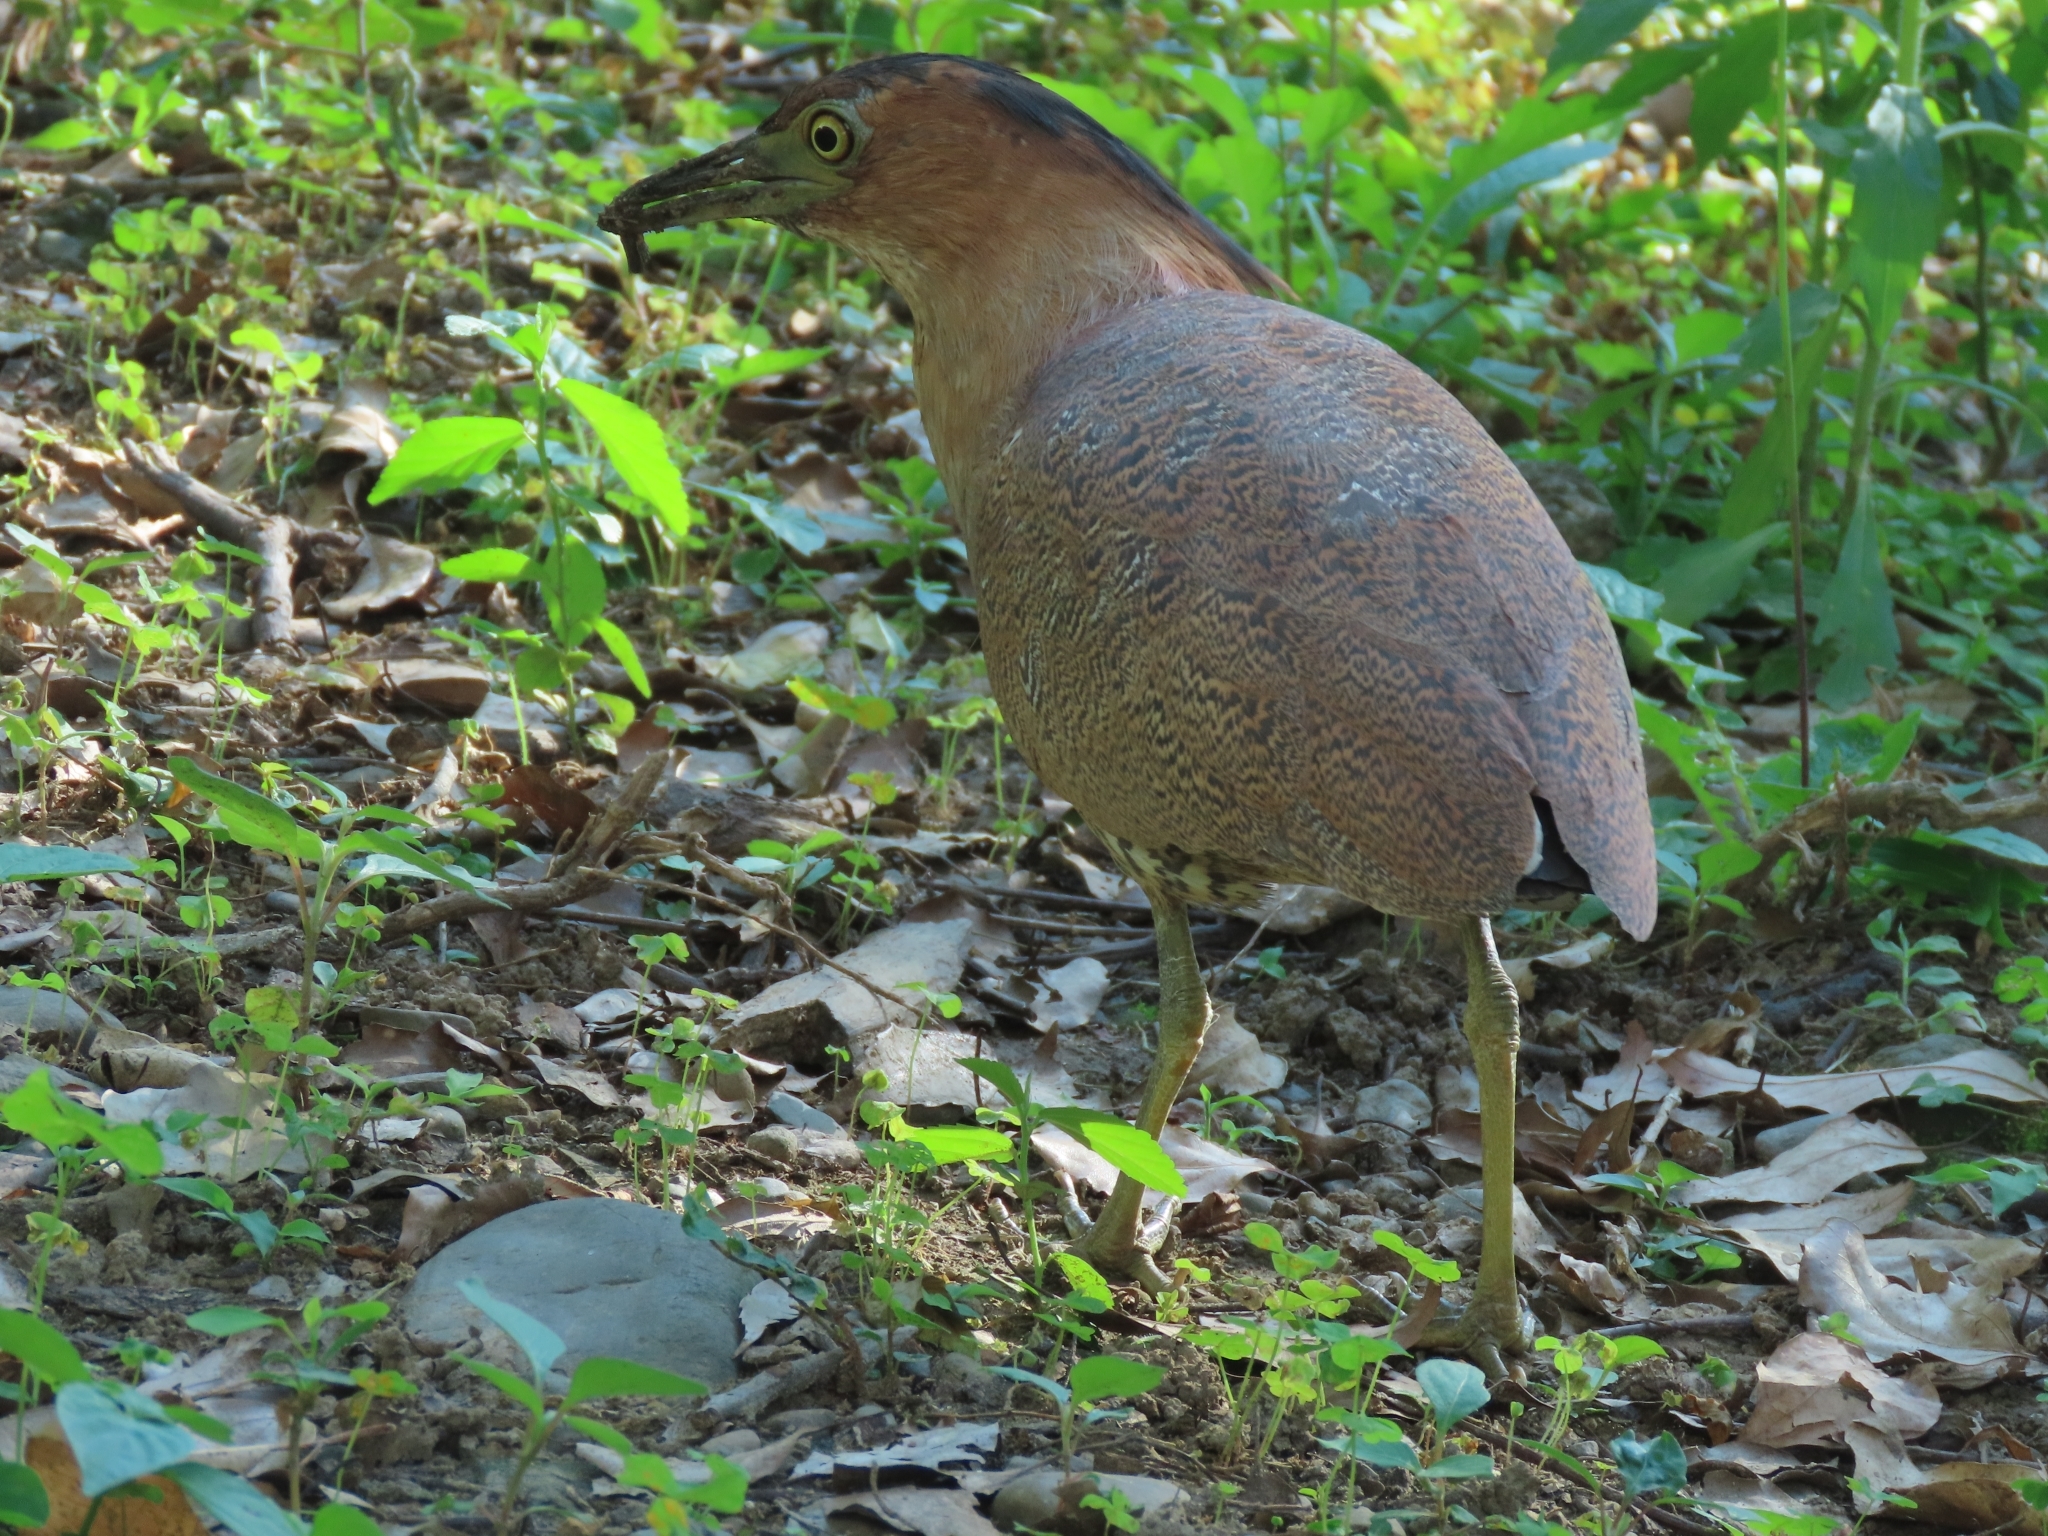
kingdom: Animalia
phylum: Chordata
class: Aves
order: Pelecaniformes
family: Ardeidae
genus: Gorsachius
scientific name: Gorsachius melanolophus
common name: Malayan night heron
